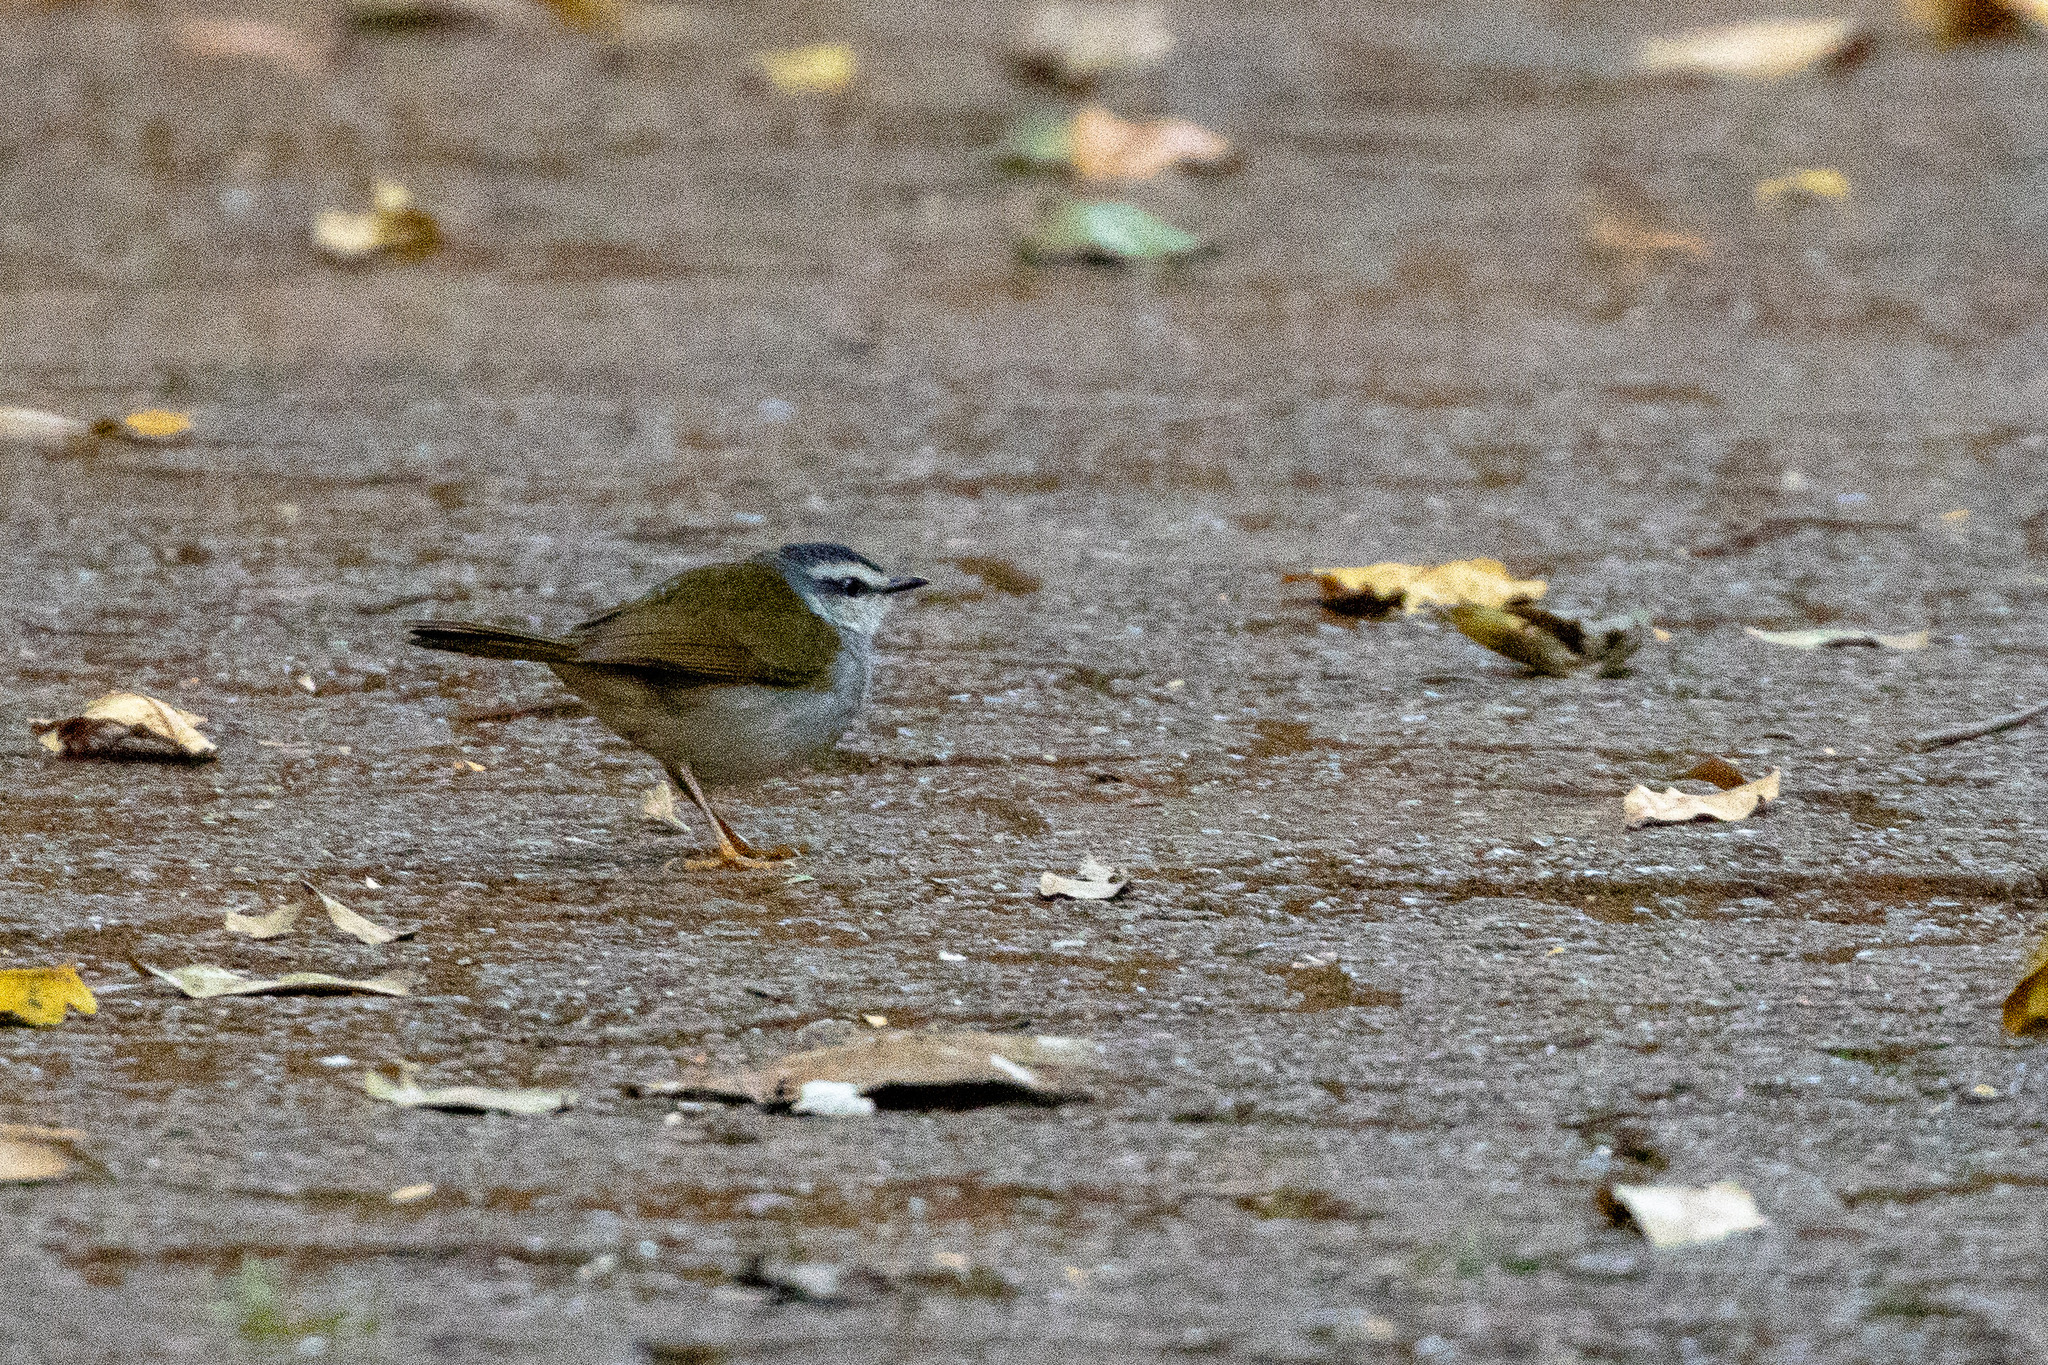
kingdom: Animalia
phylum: Chordata
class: Aves
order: Passeriformes
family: Parulidae
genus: Myiothlypis
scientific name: Myiothlypis leucophrys
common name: White-striped warbler
